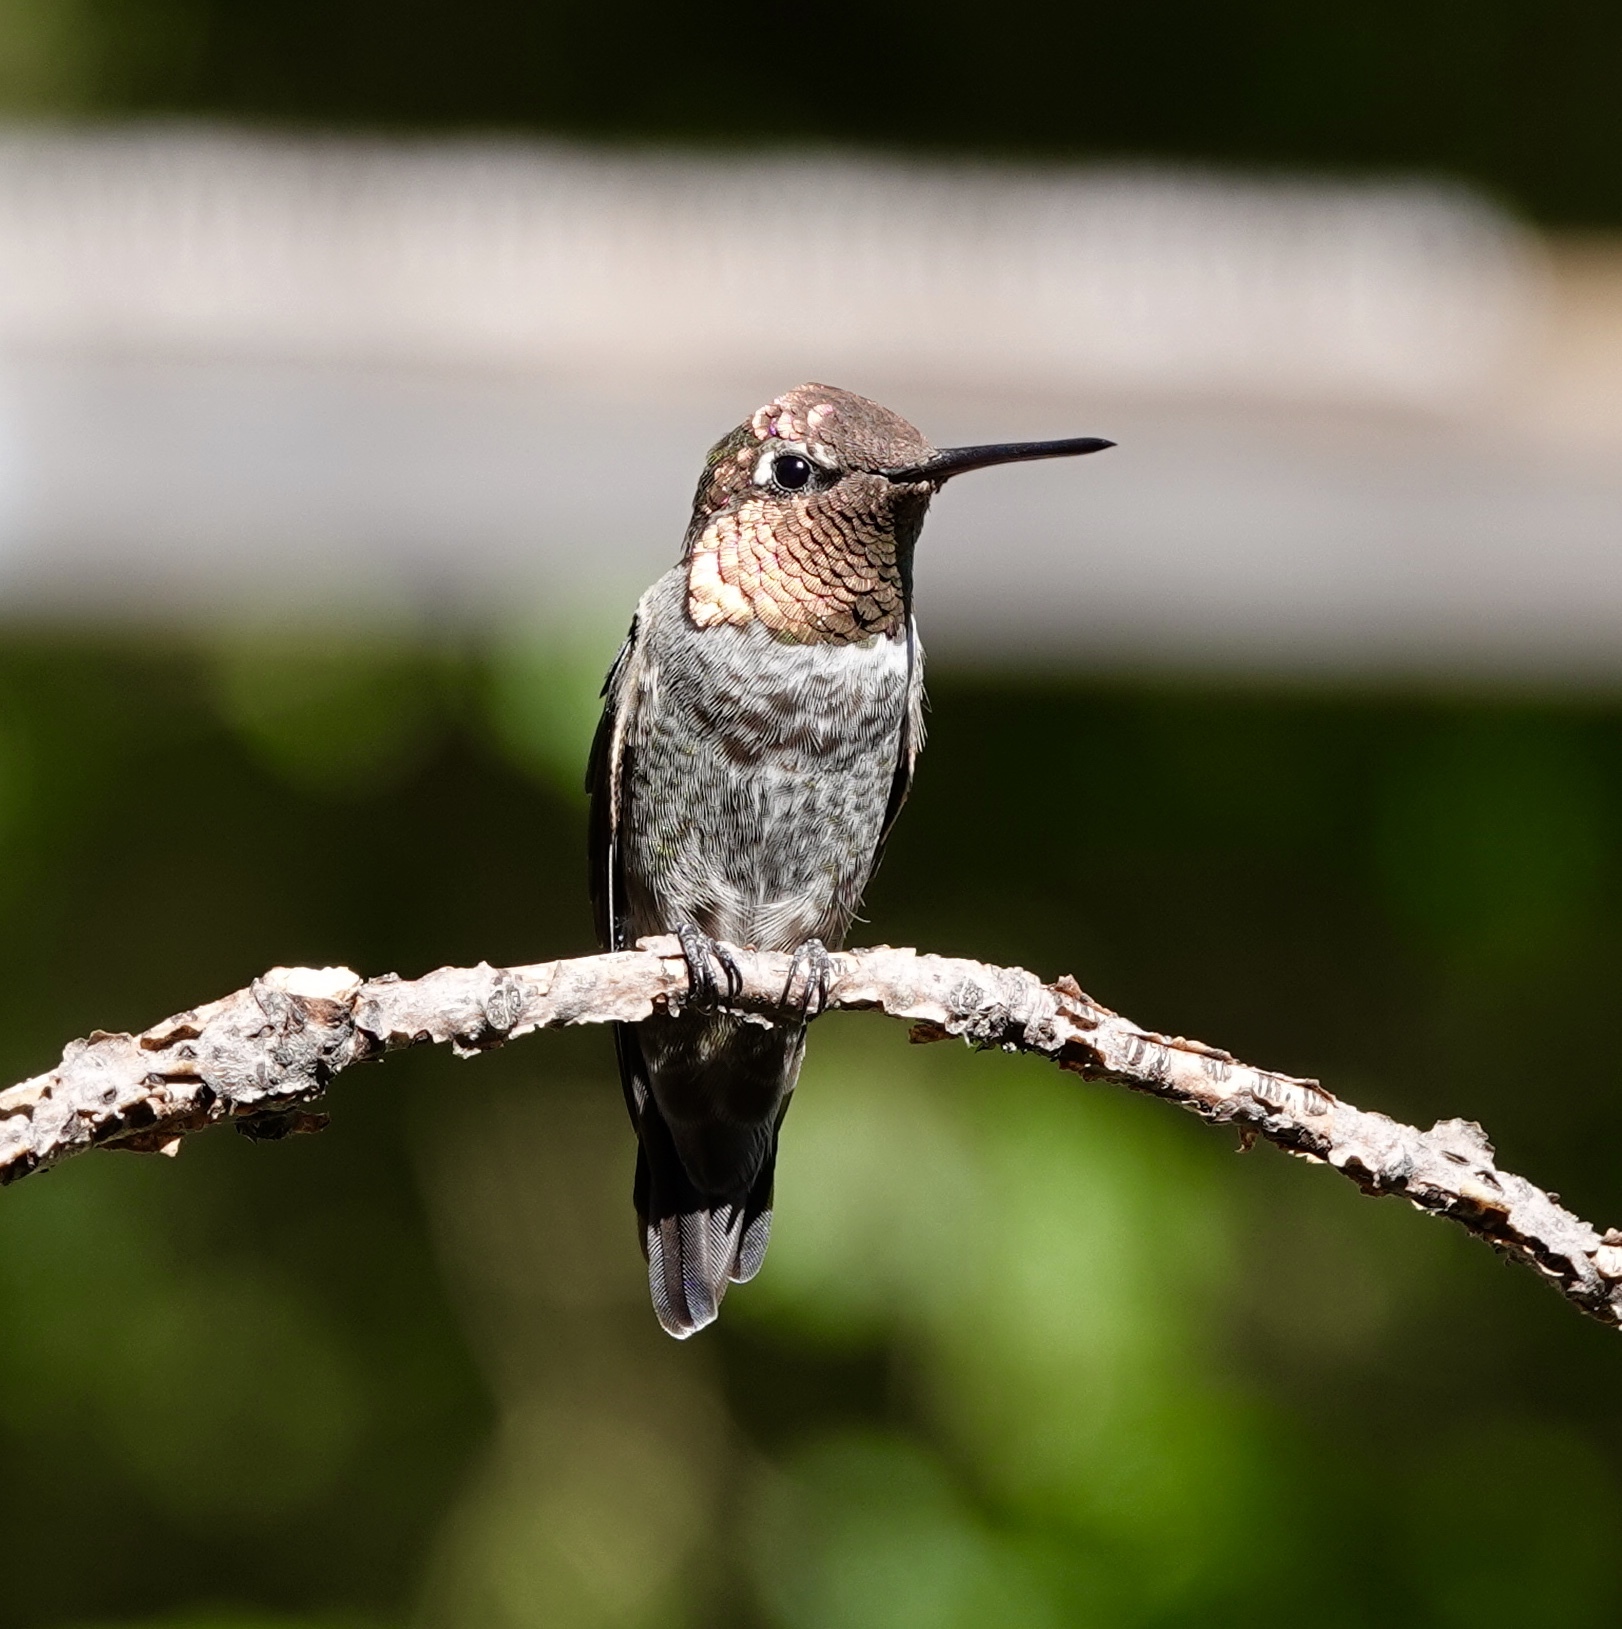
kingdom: Animalia
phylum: Chordata
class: Aves
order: Apodiformes
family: Trochilidae
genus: Calypte
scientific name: Calypte anna
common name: Anna's hummingbird
